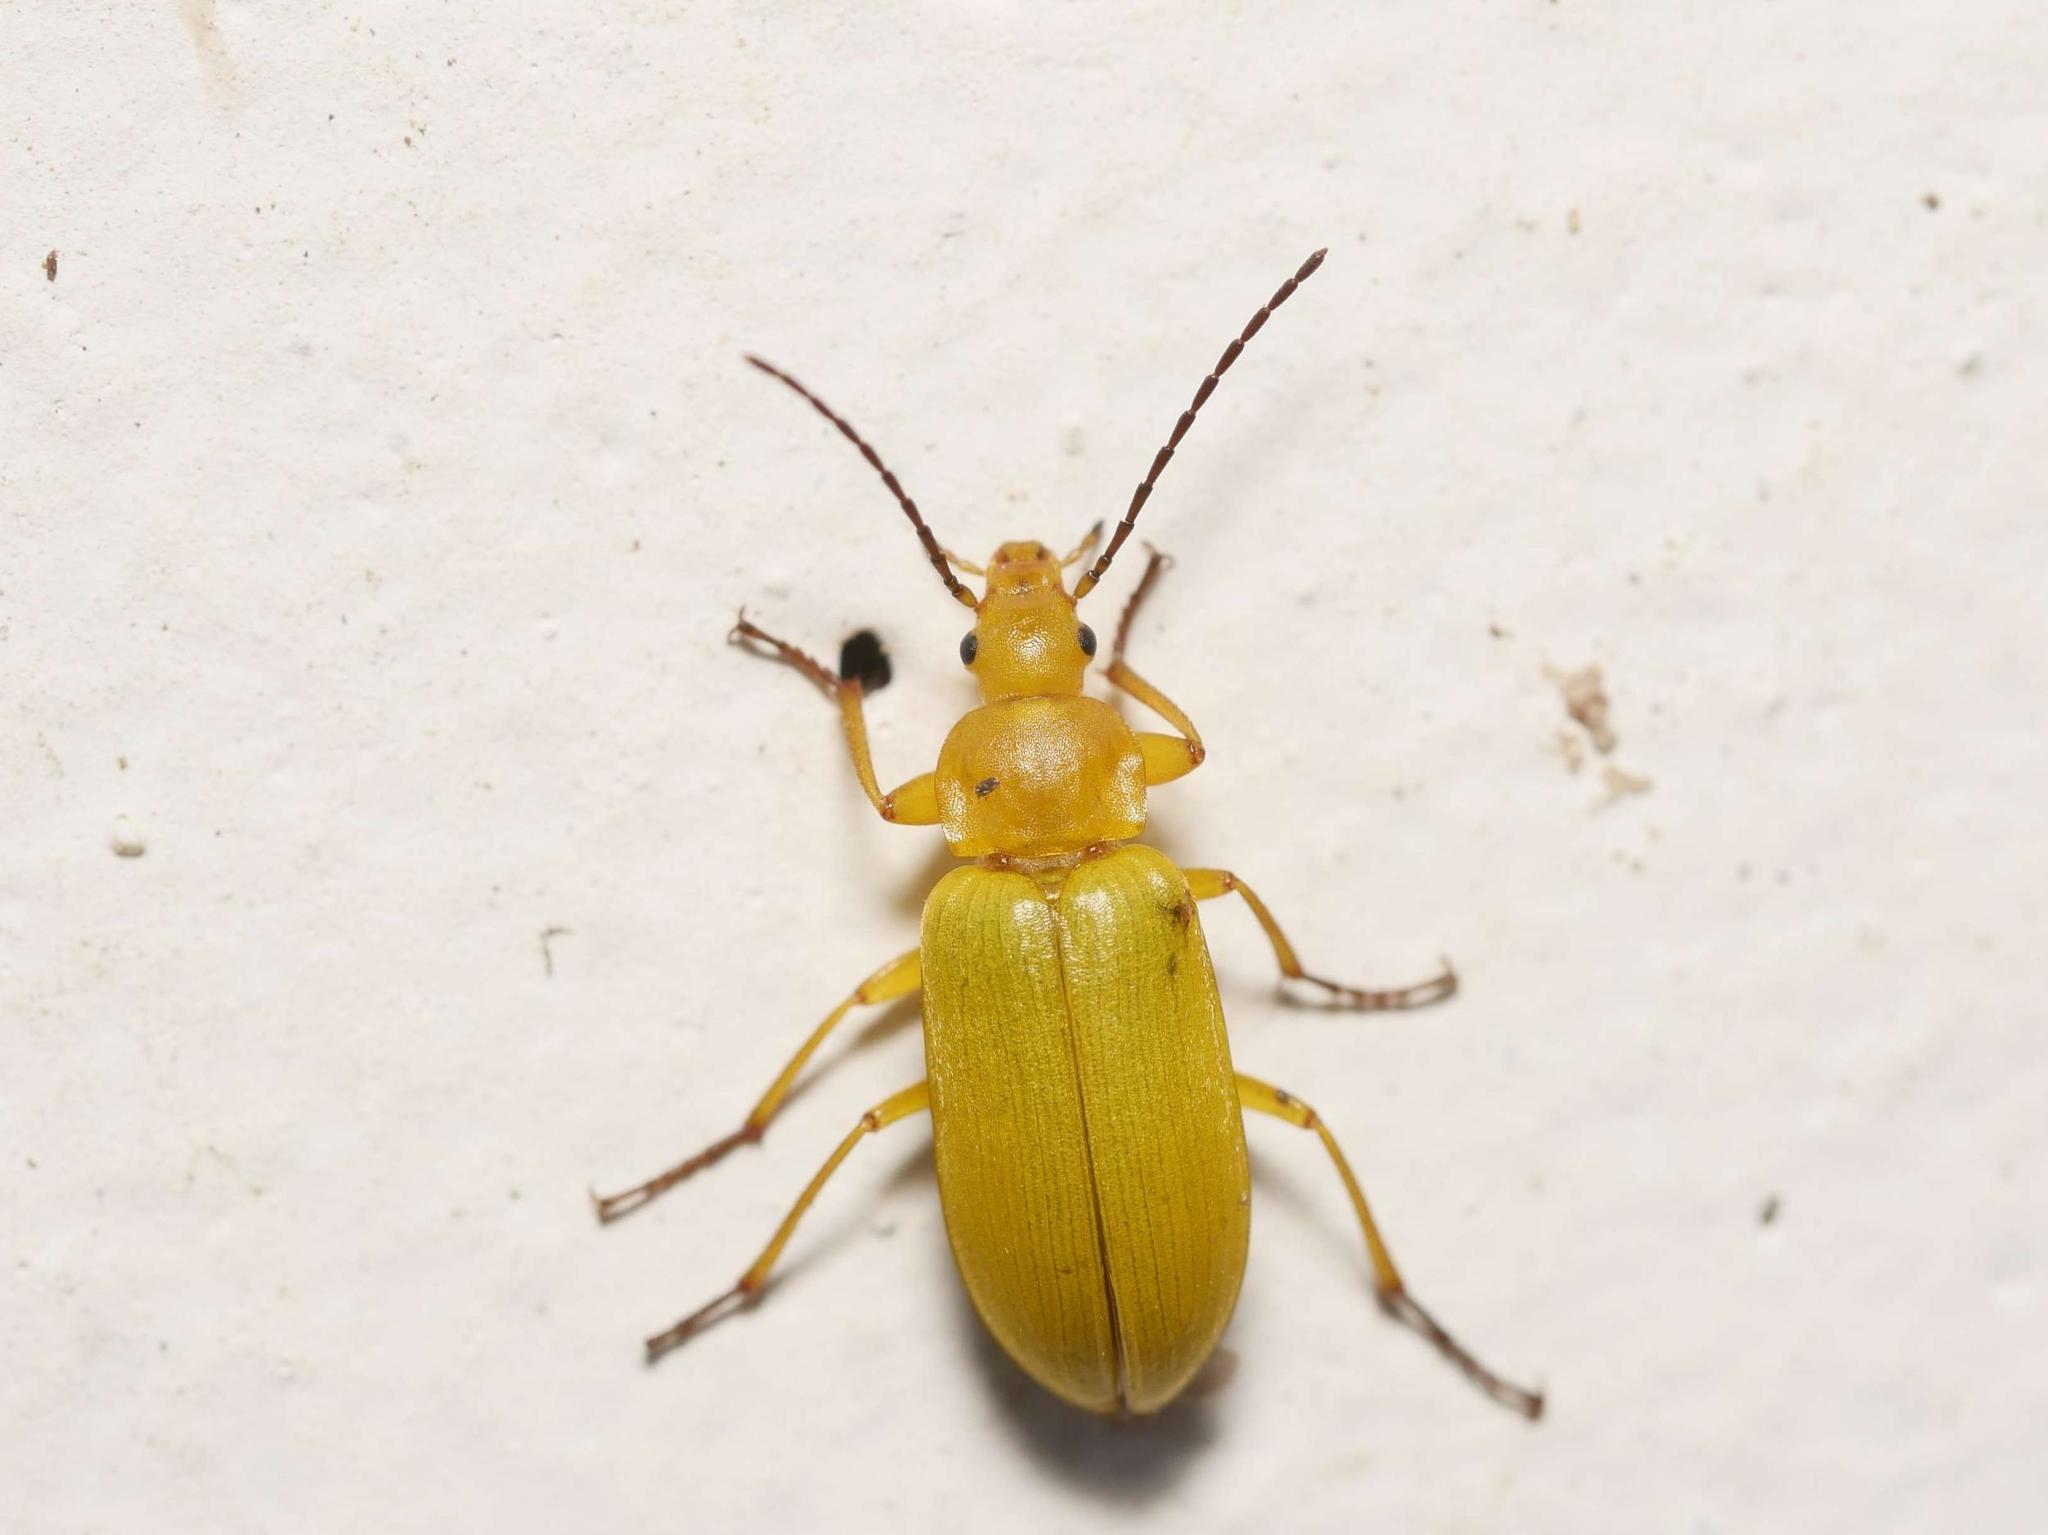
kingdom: Animalia
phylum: Arthropoda
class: Insecta
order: Coleoptera
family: Tenebrionidae
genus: Cteniopus
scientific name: Cteniopus sulphureus
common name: Sulphur beetle
